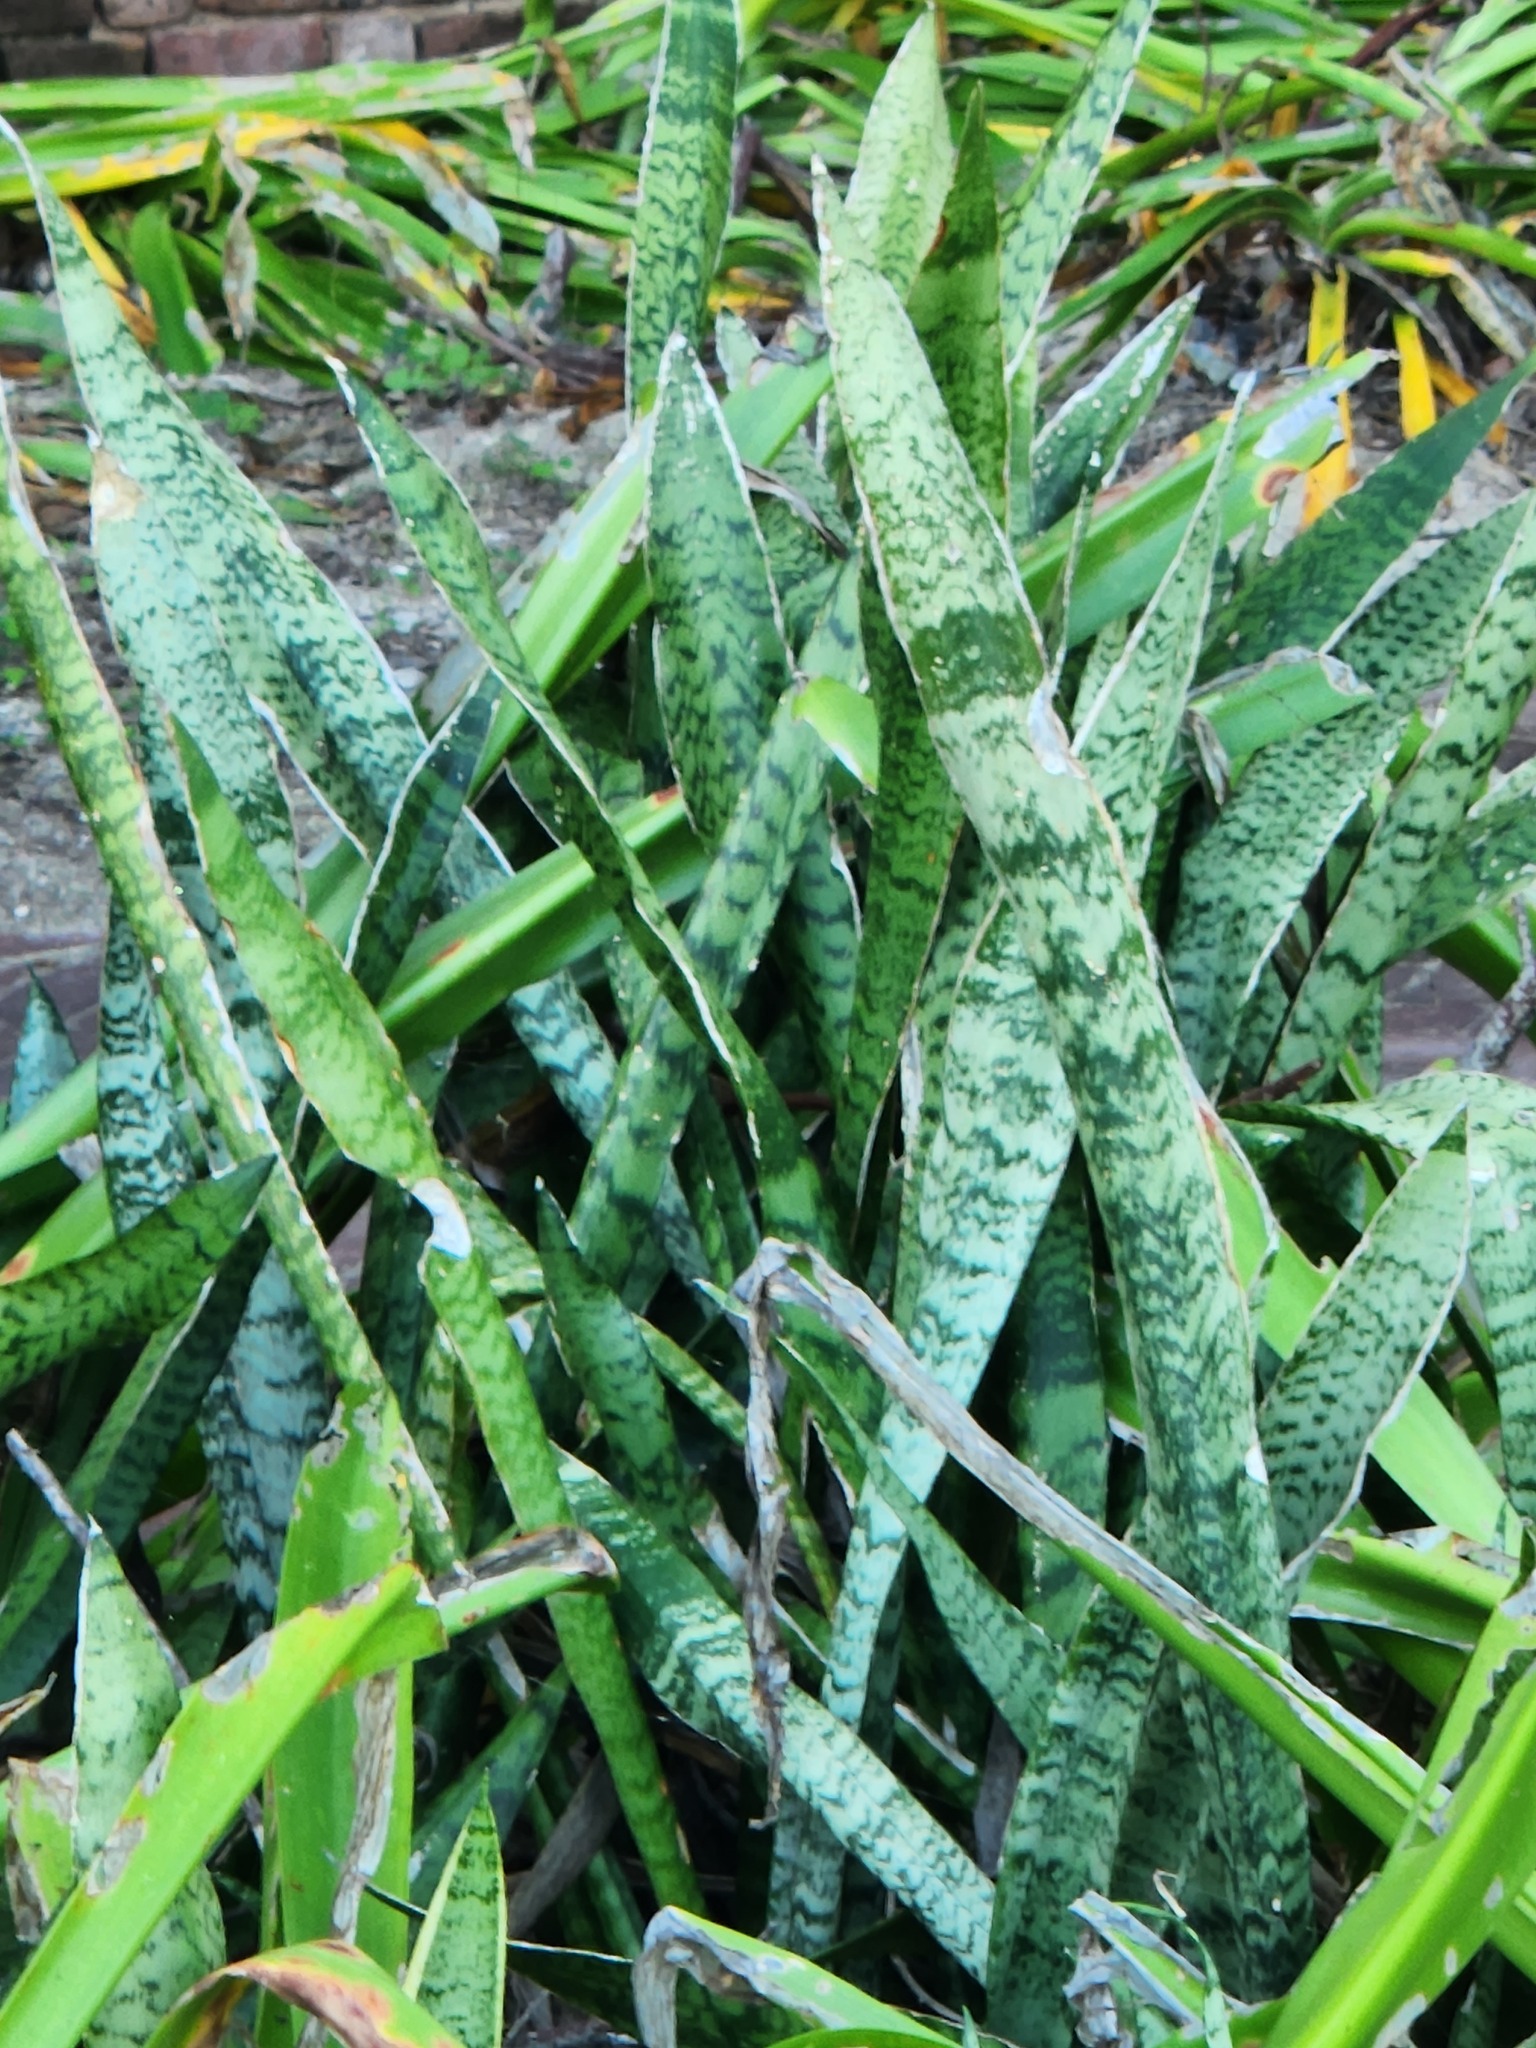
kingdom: Plantae
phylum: Tracheophyta
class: Liliopsida
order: Asparagales
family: Asparagaceae
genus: Dracaena
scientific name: Dracaena trifasciata
